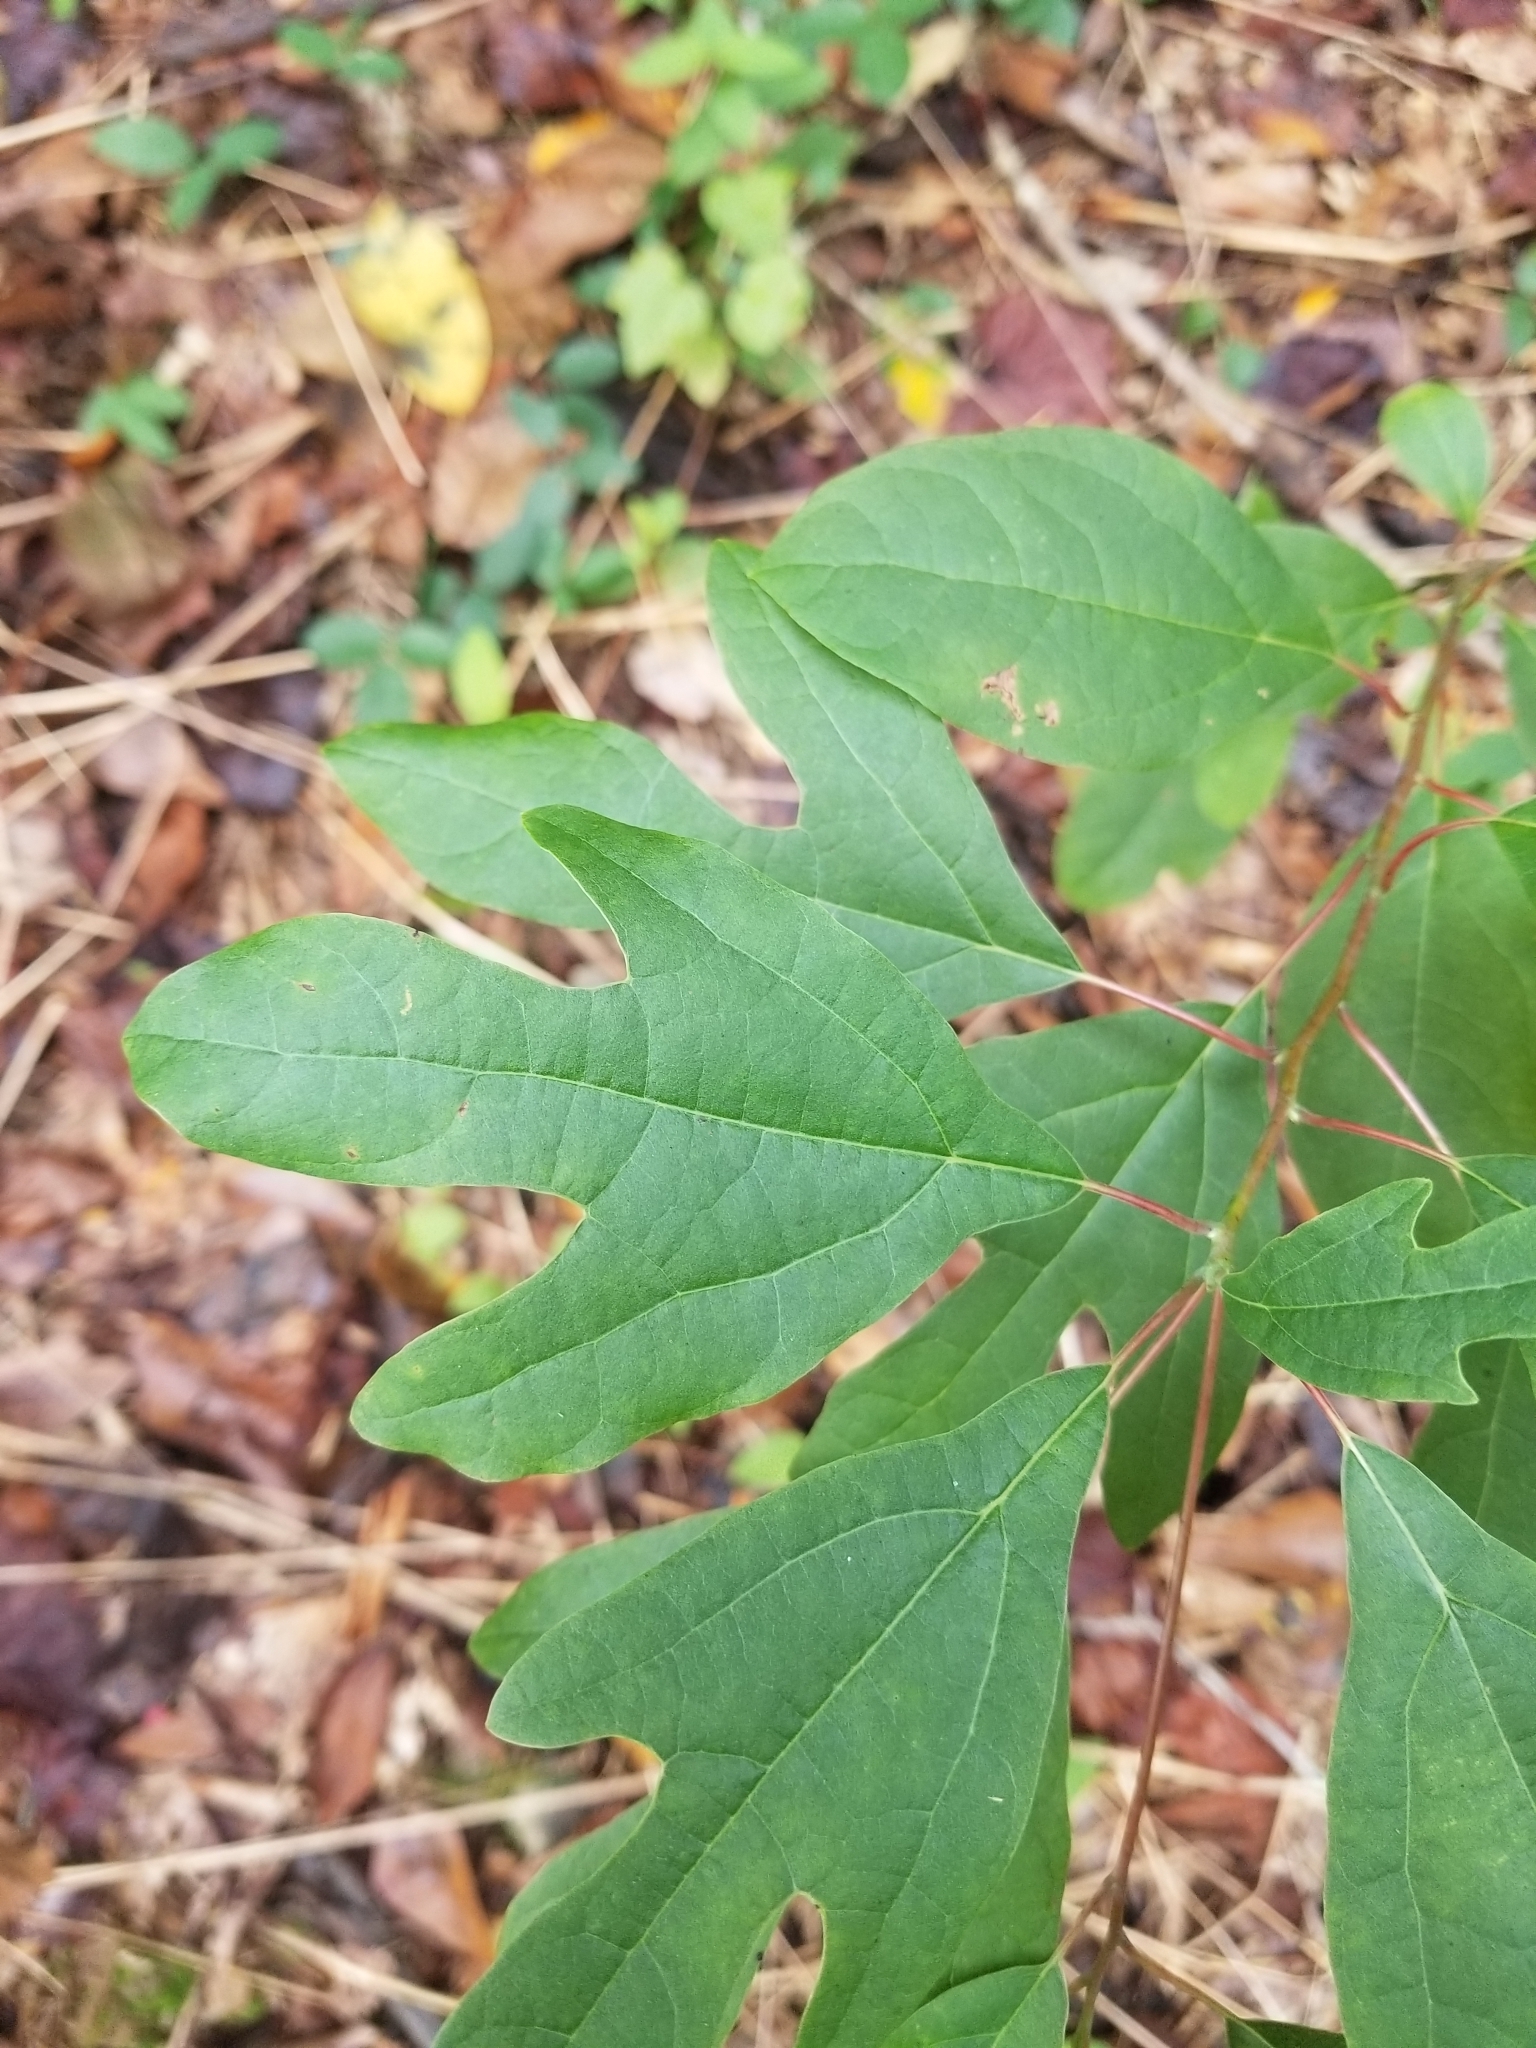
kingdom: Plantae
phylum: Tracheophyta
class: Magnoliopsida
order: Laurales
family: Lauraceae
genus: Sassafras
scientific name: Sassafras albidum
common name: Sassafras
